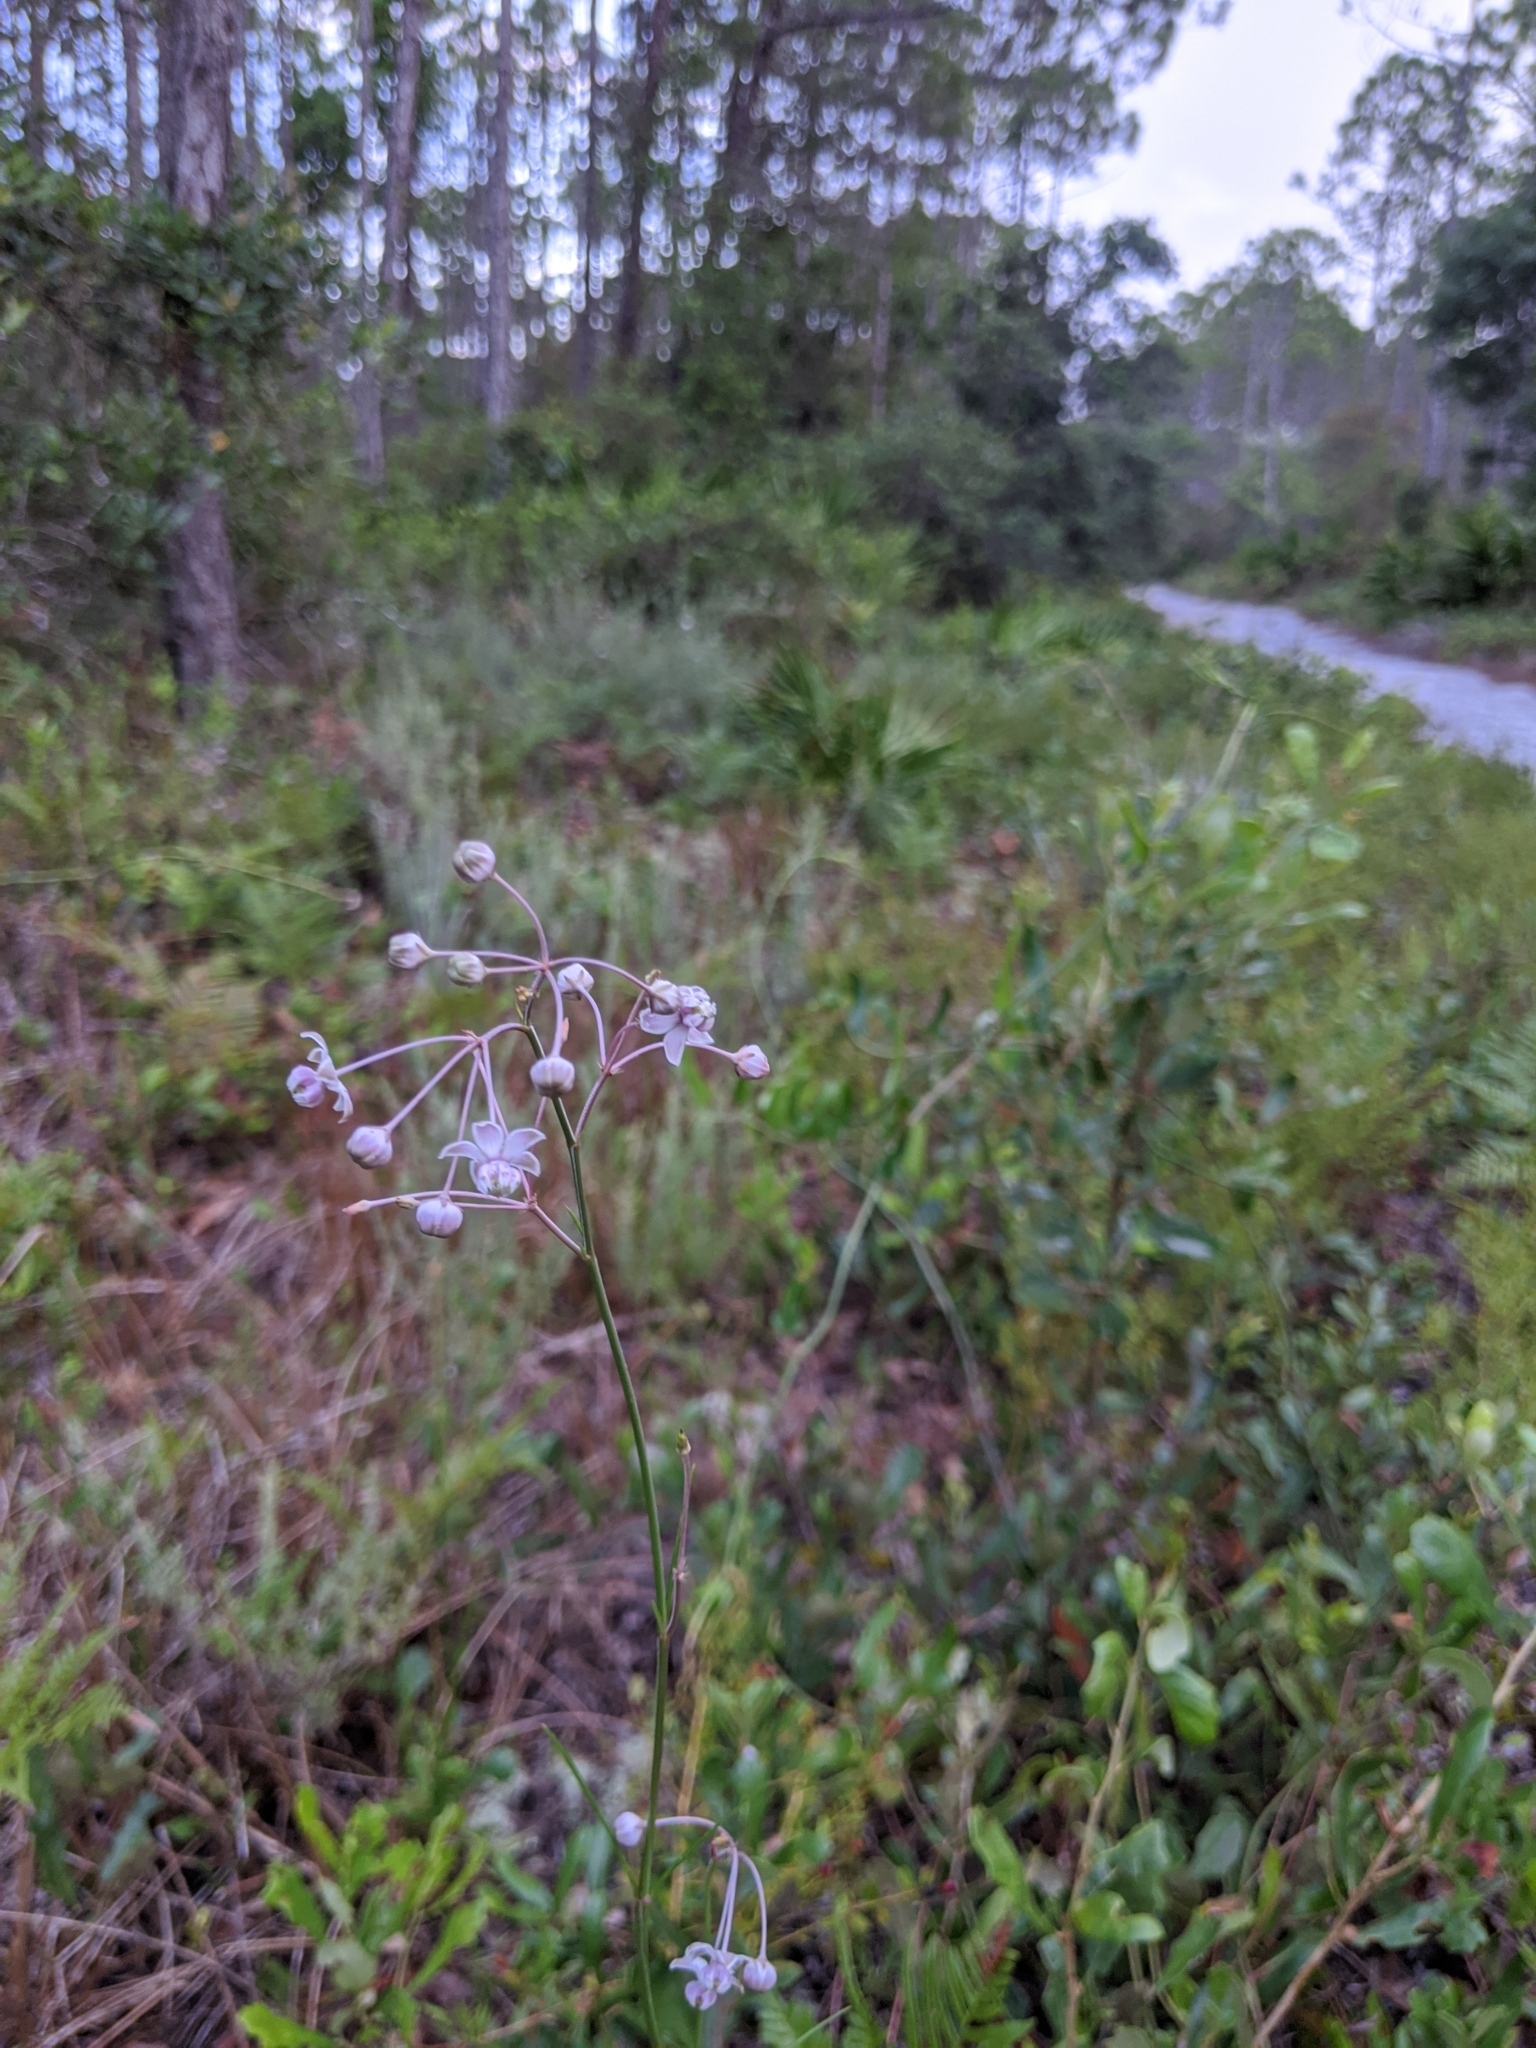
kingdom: Plantae
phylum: Tracheophyta
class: Magnoliopsida
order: Gentianales
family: Apocynaceae
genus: Asclepias
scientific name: Asclepias cinerea
